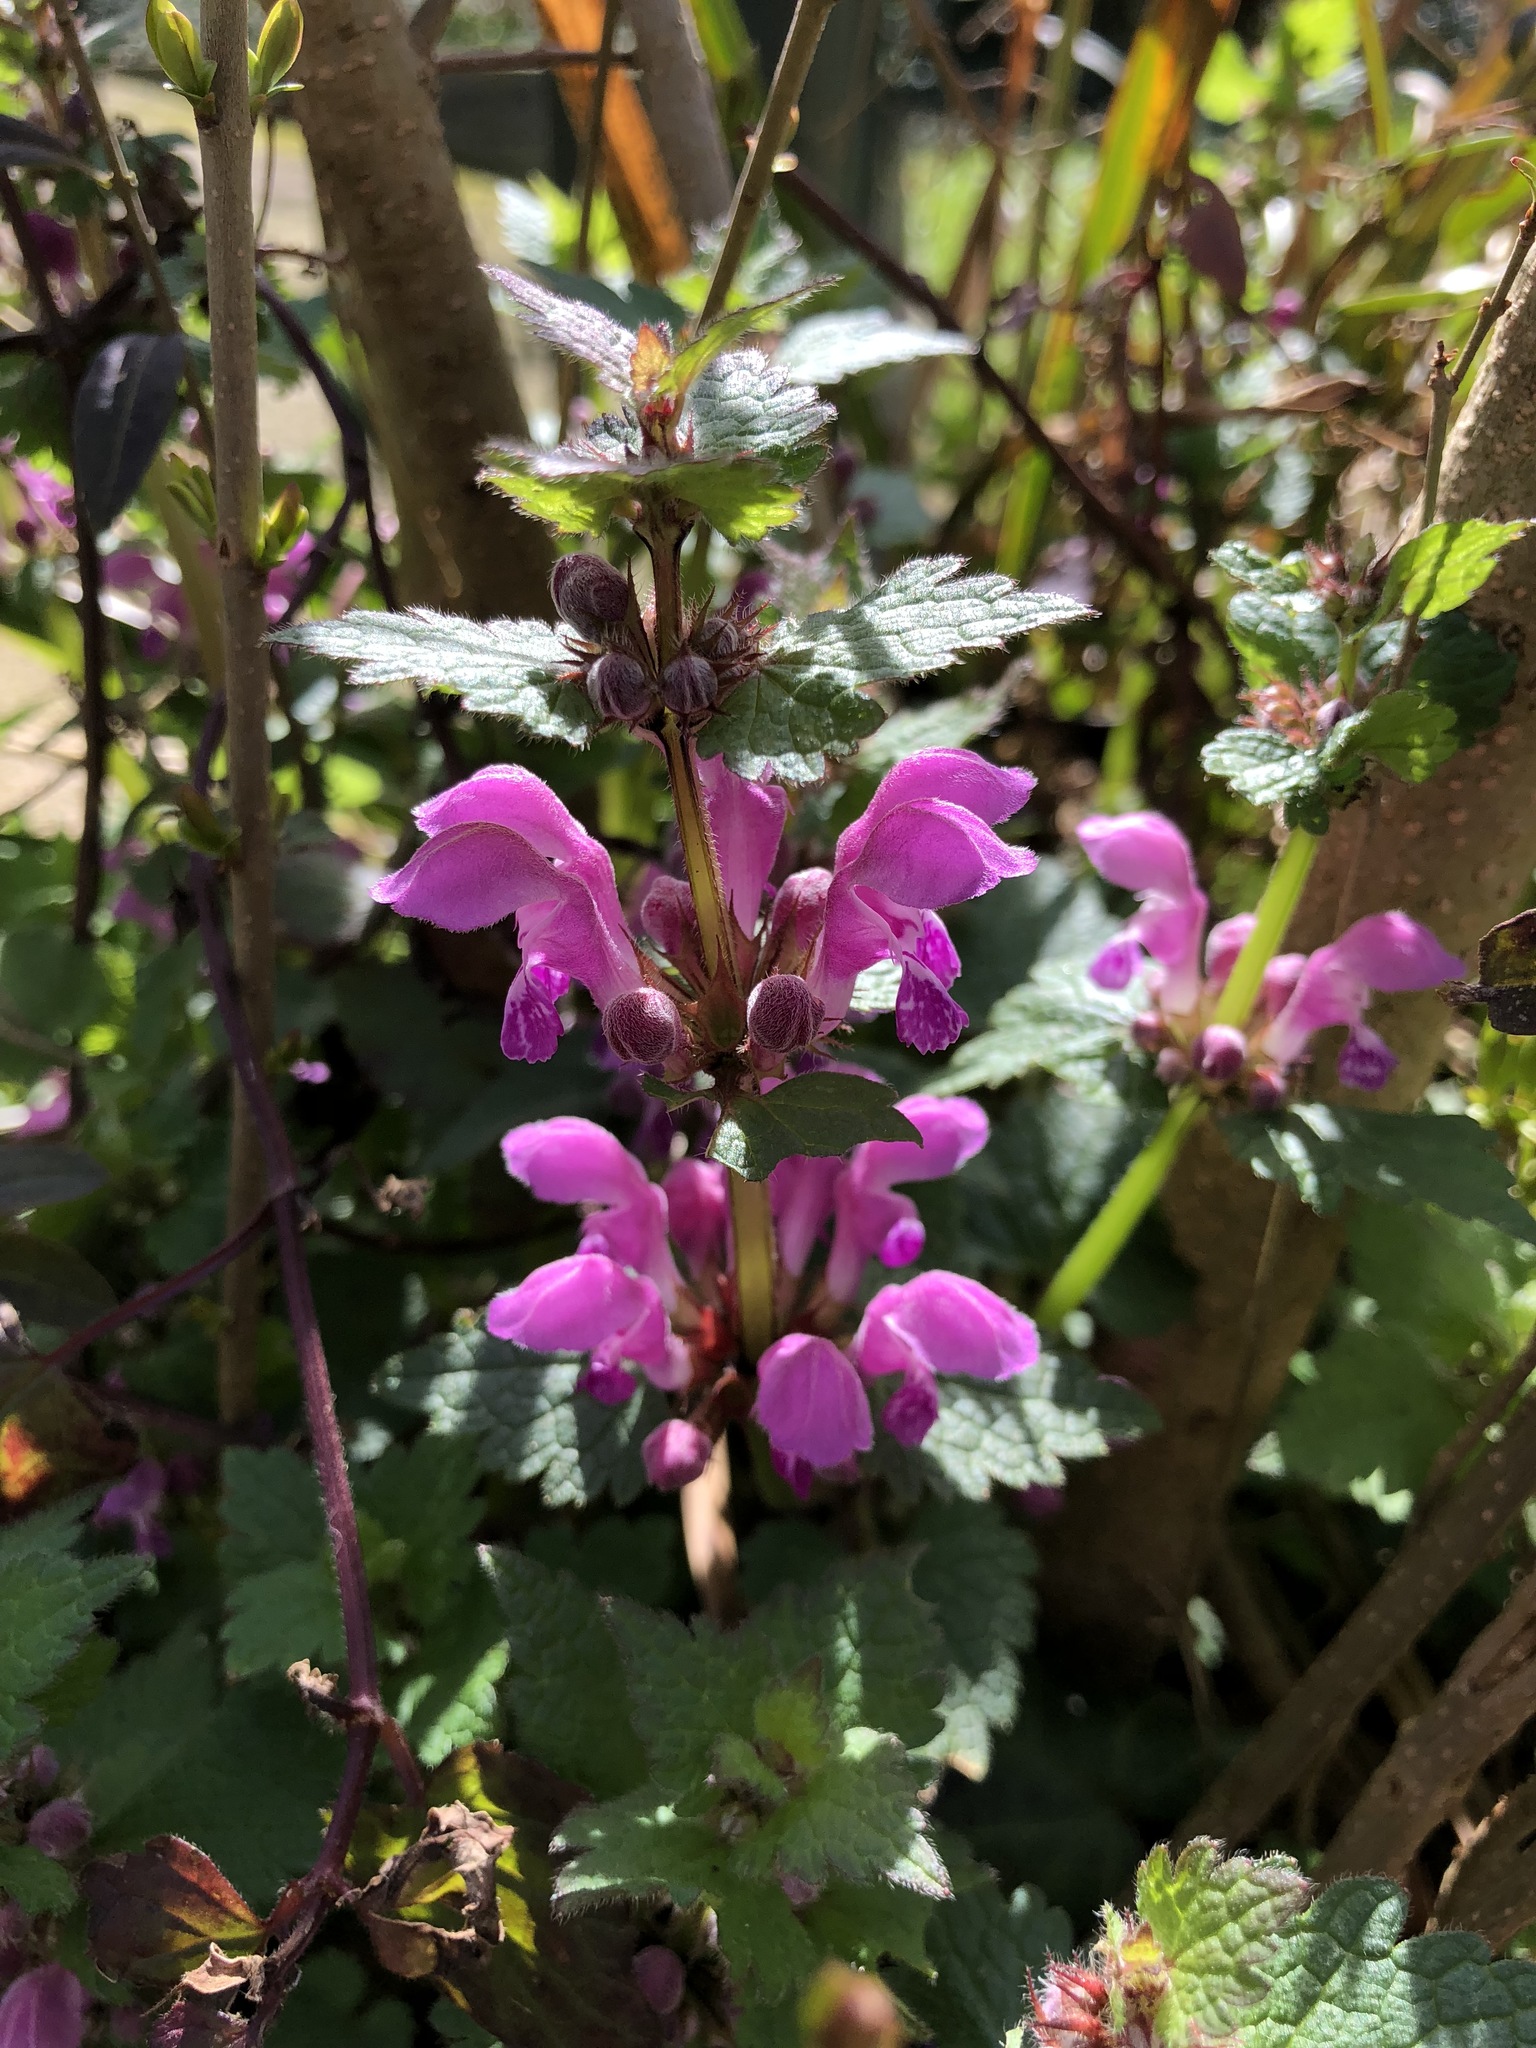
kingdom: Plantae
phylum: Tracheophyta
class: Magnoliopsida
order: Lamiales
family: Lamiaceae
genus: Lamium
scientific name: Lamium maculatum
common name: Spotted dead-nettle
